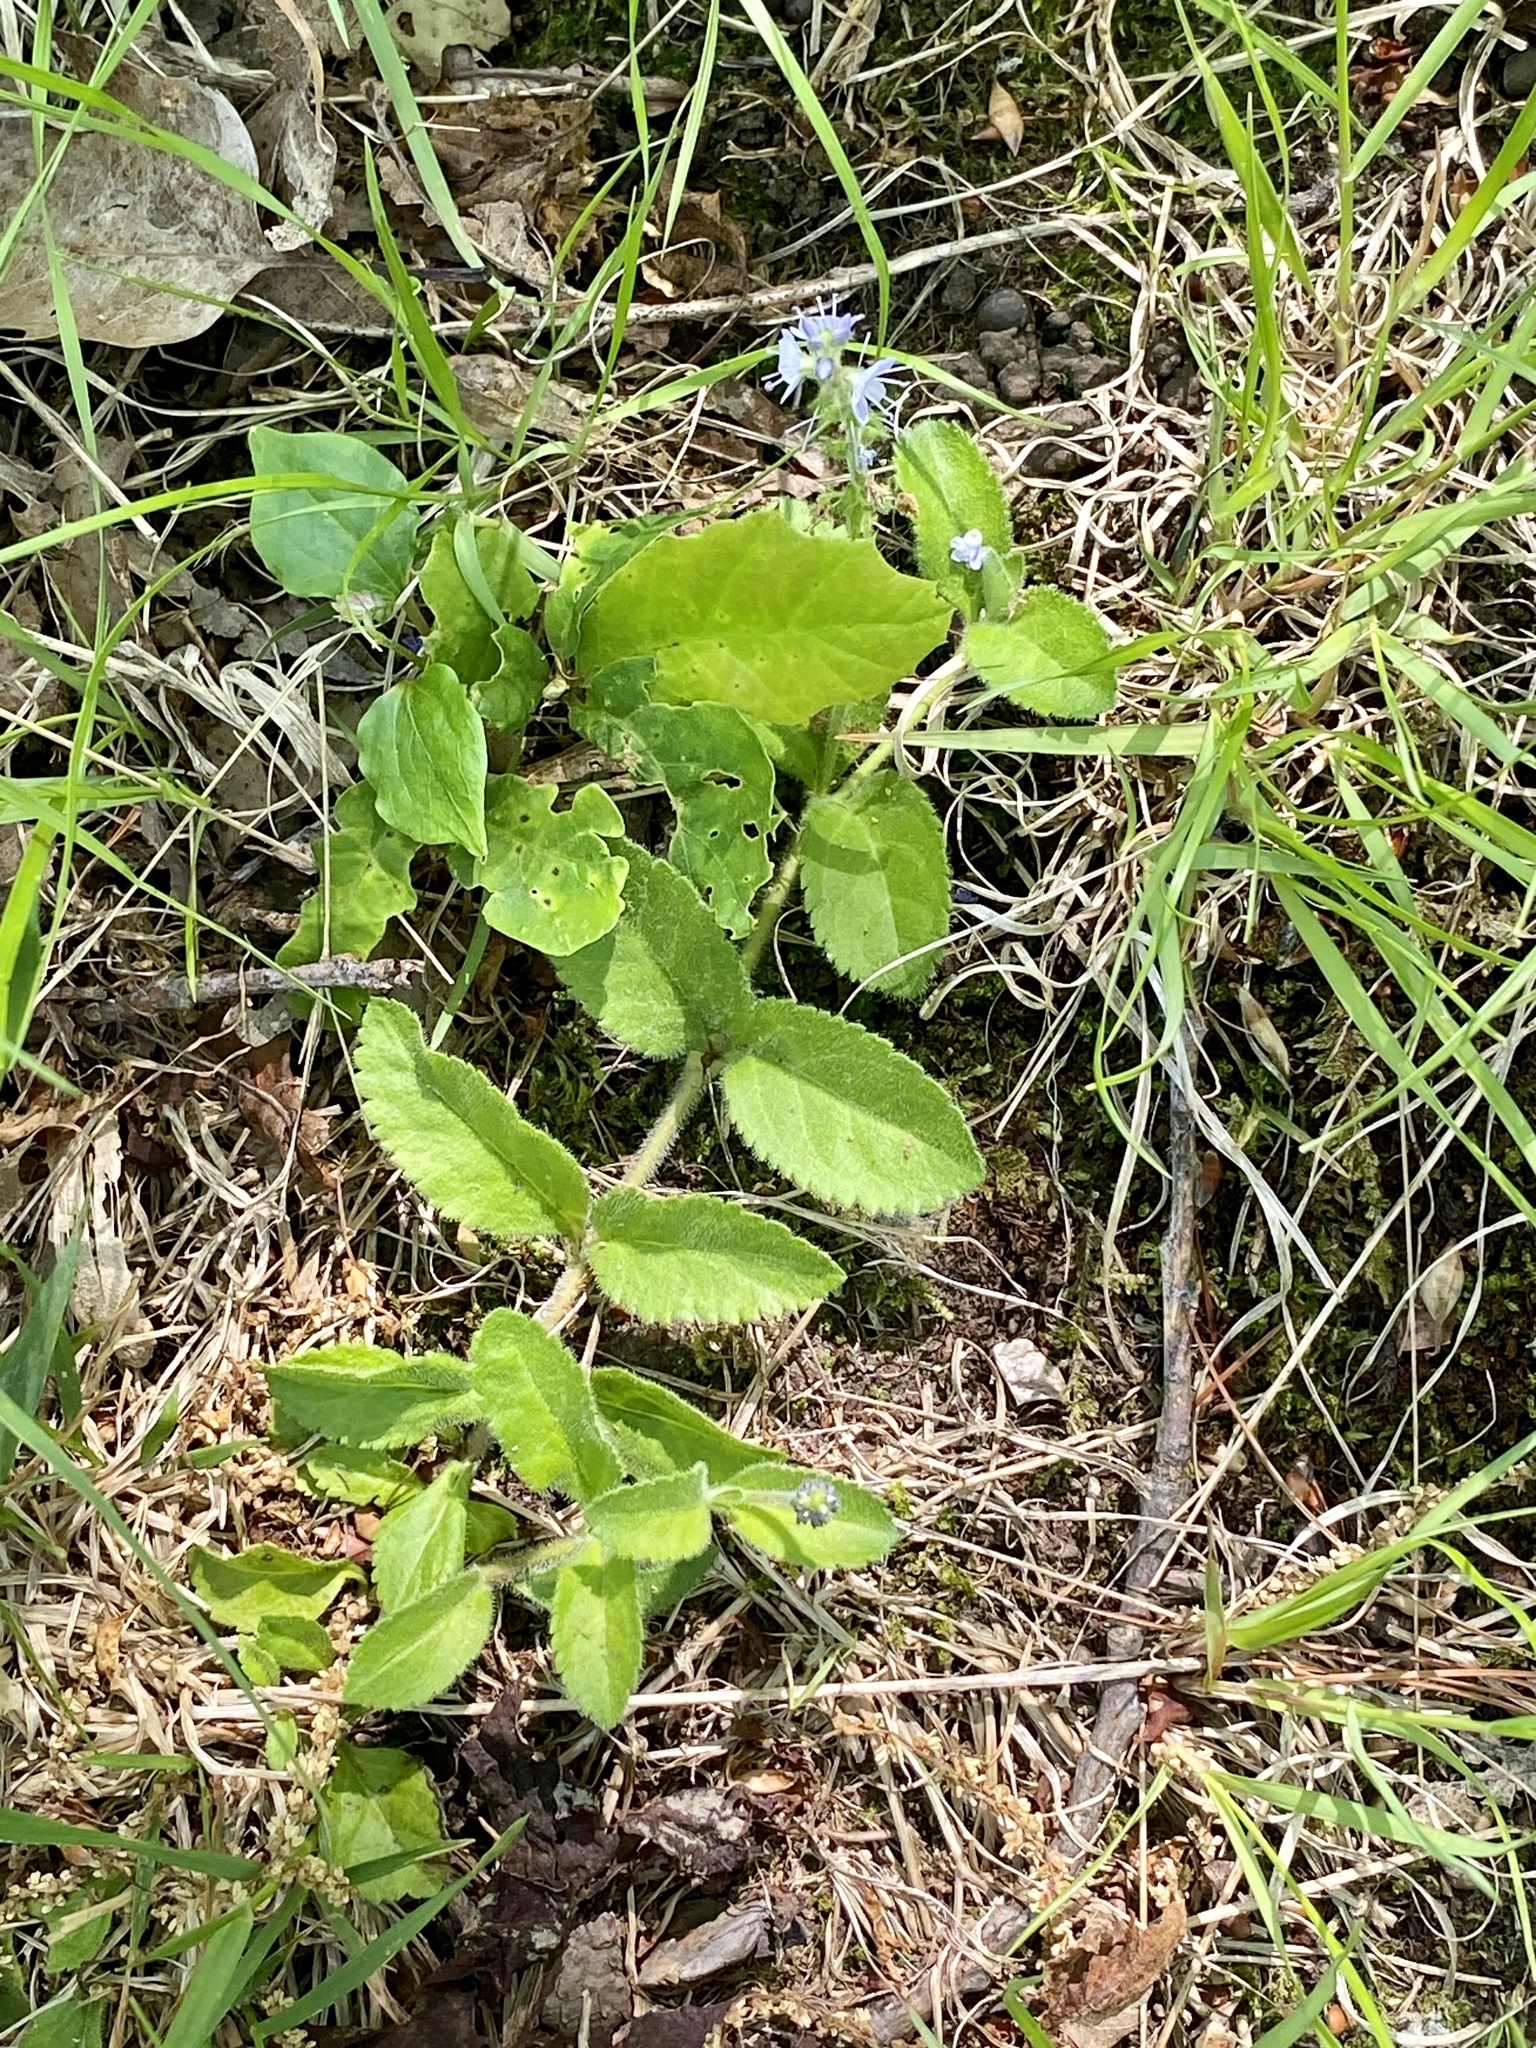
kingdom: Plantae
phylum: Tracheophyta
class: Magnoliopsida
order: Lamiales
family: Plantaginaceae
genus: Veronica
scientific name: Veronica officinalis
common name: Common speedwell
